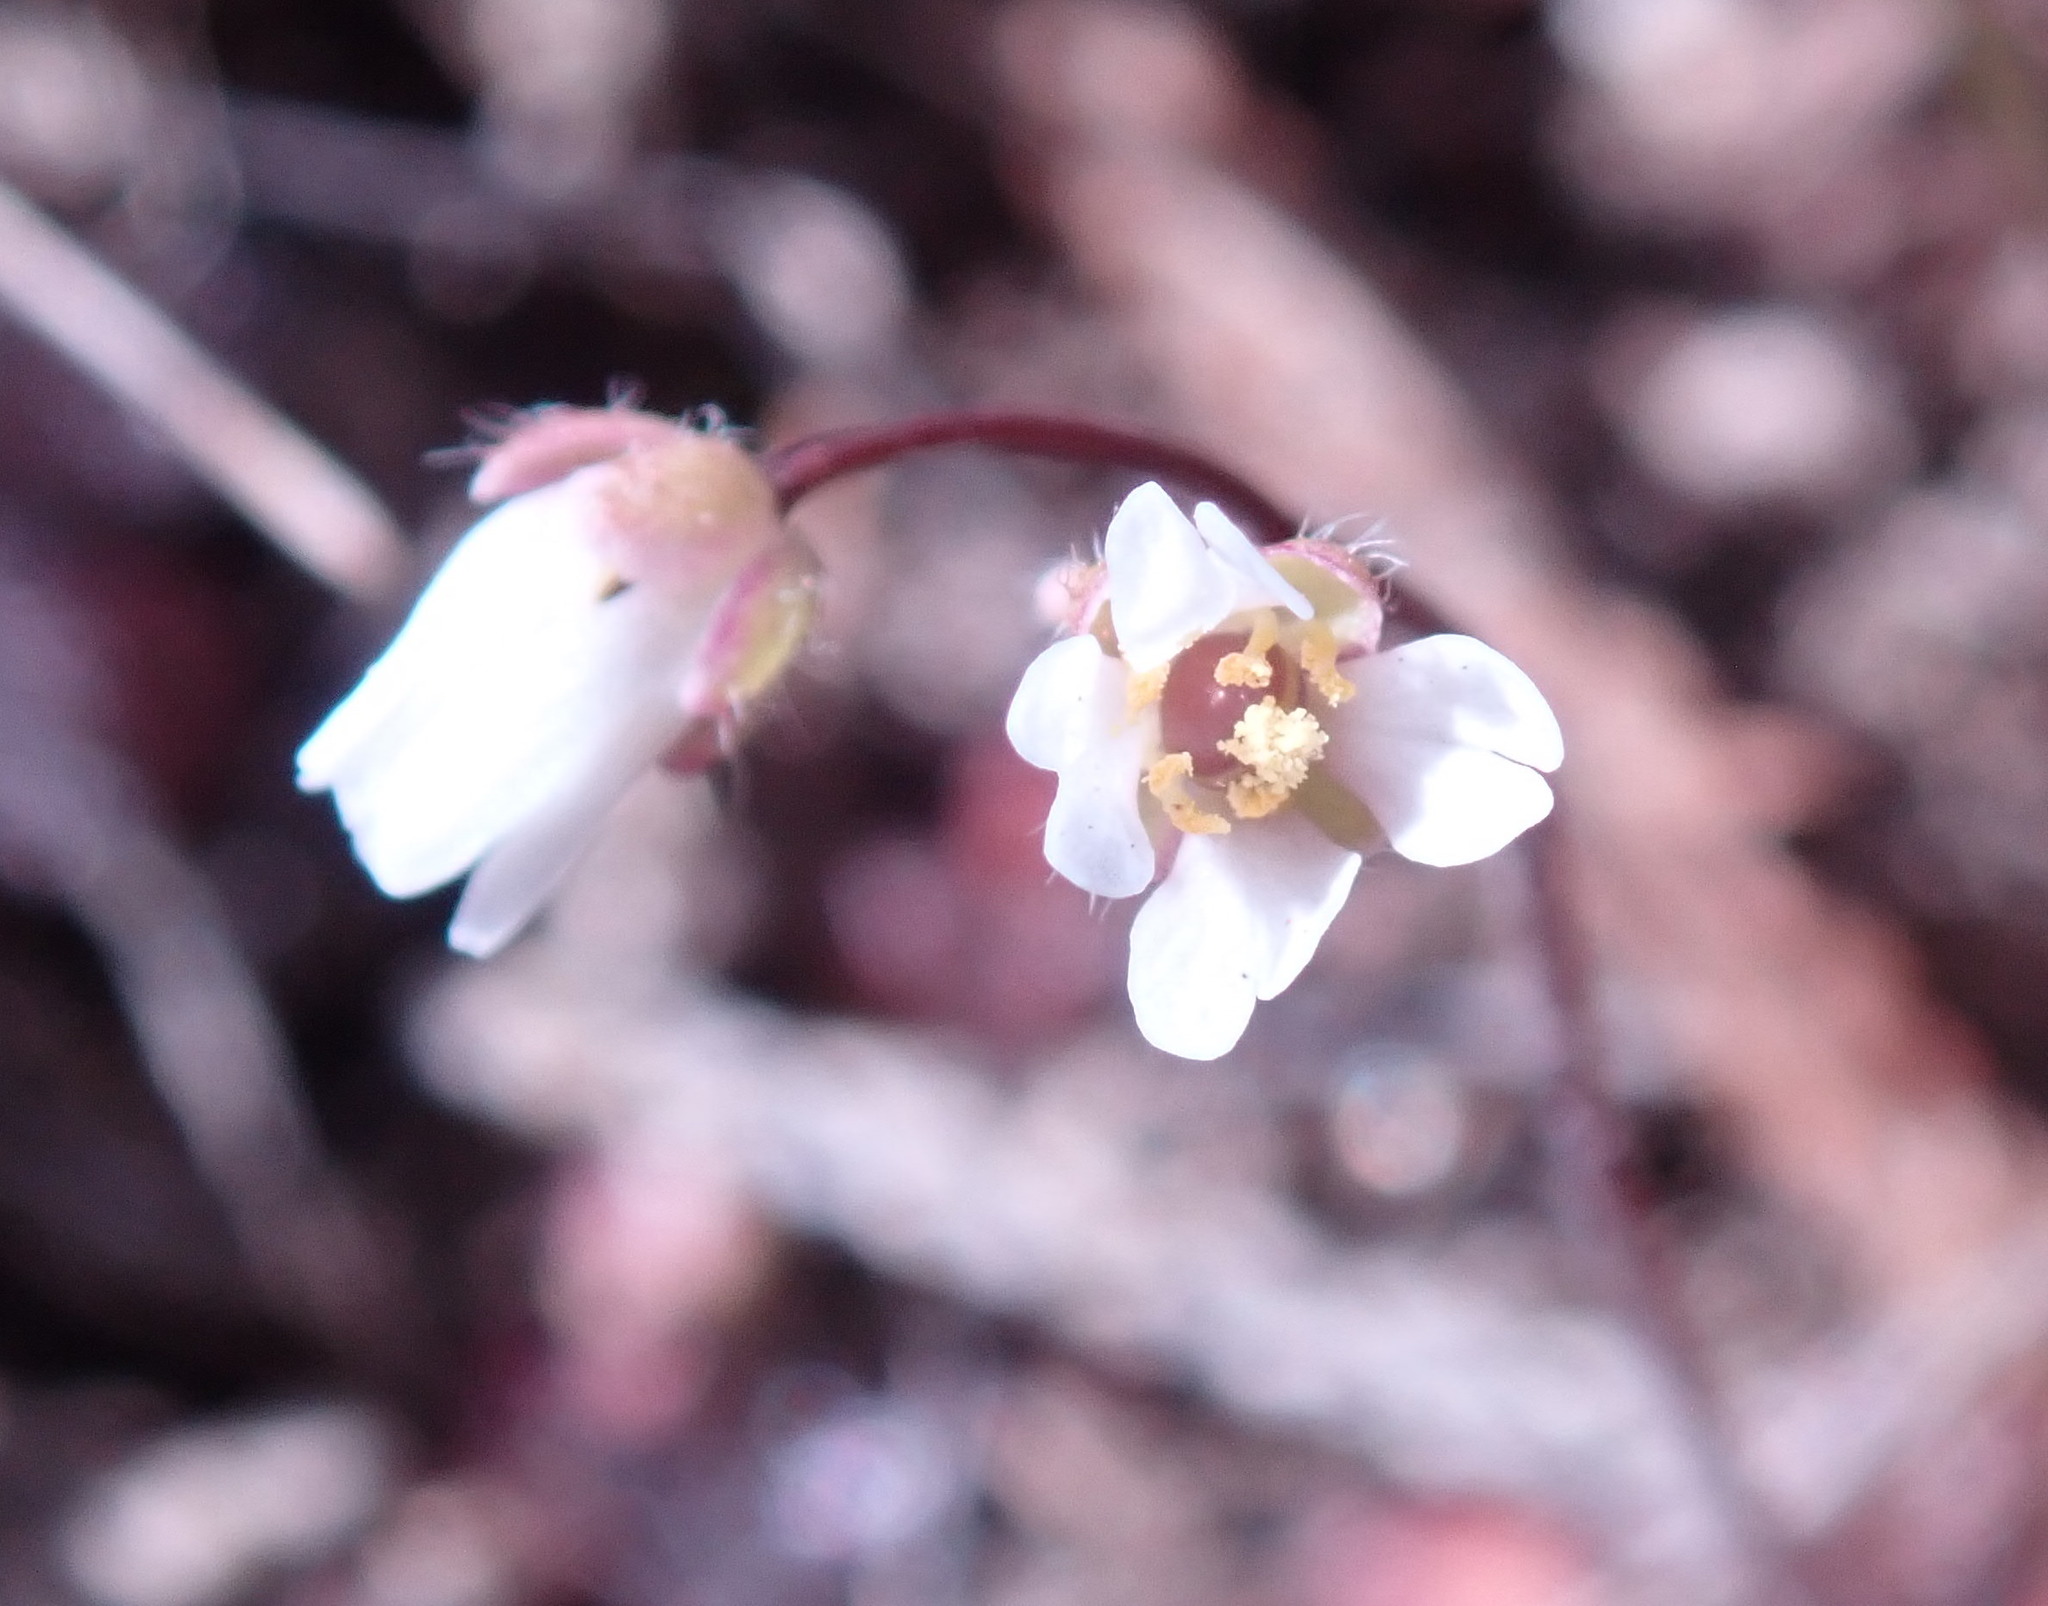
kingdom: Plantae
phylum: Tracheophyta
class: Magnoliopsida
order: Brassicales
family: Brassicaceae
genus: Draba
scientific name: Draba verna
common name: Spring draba
